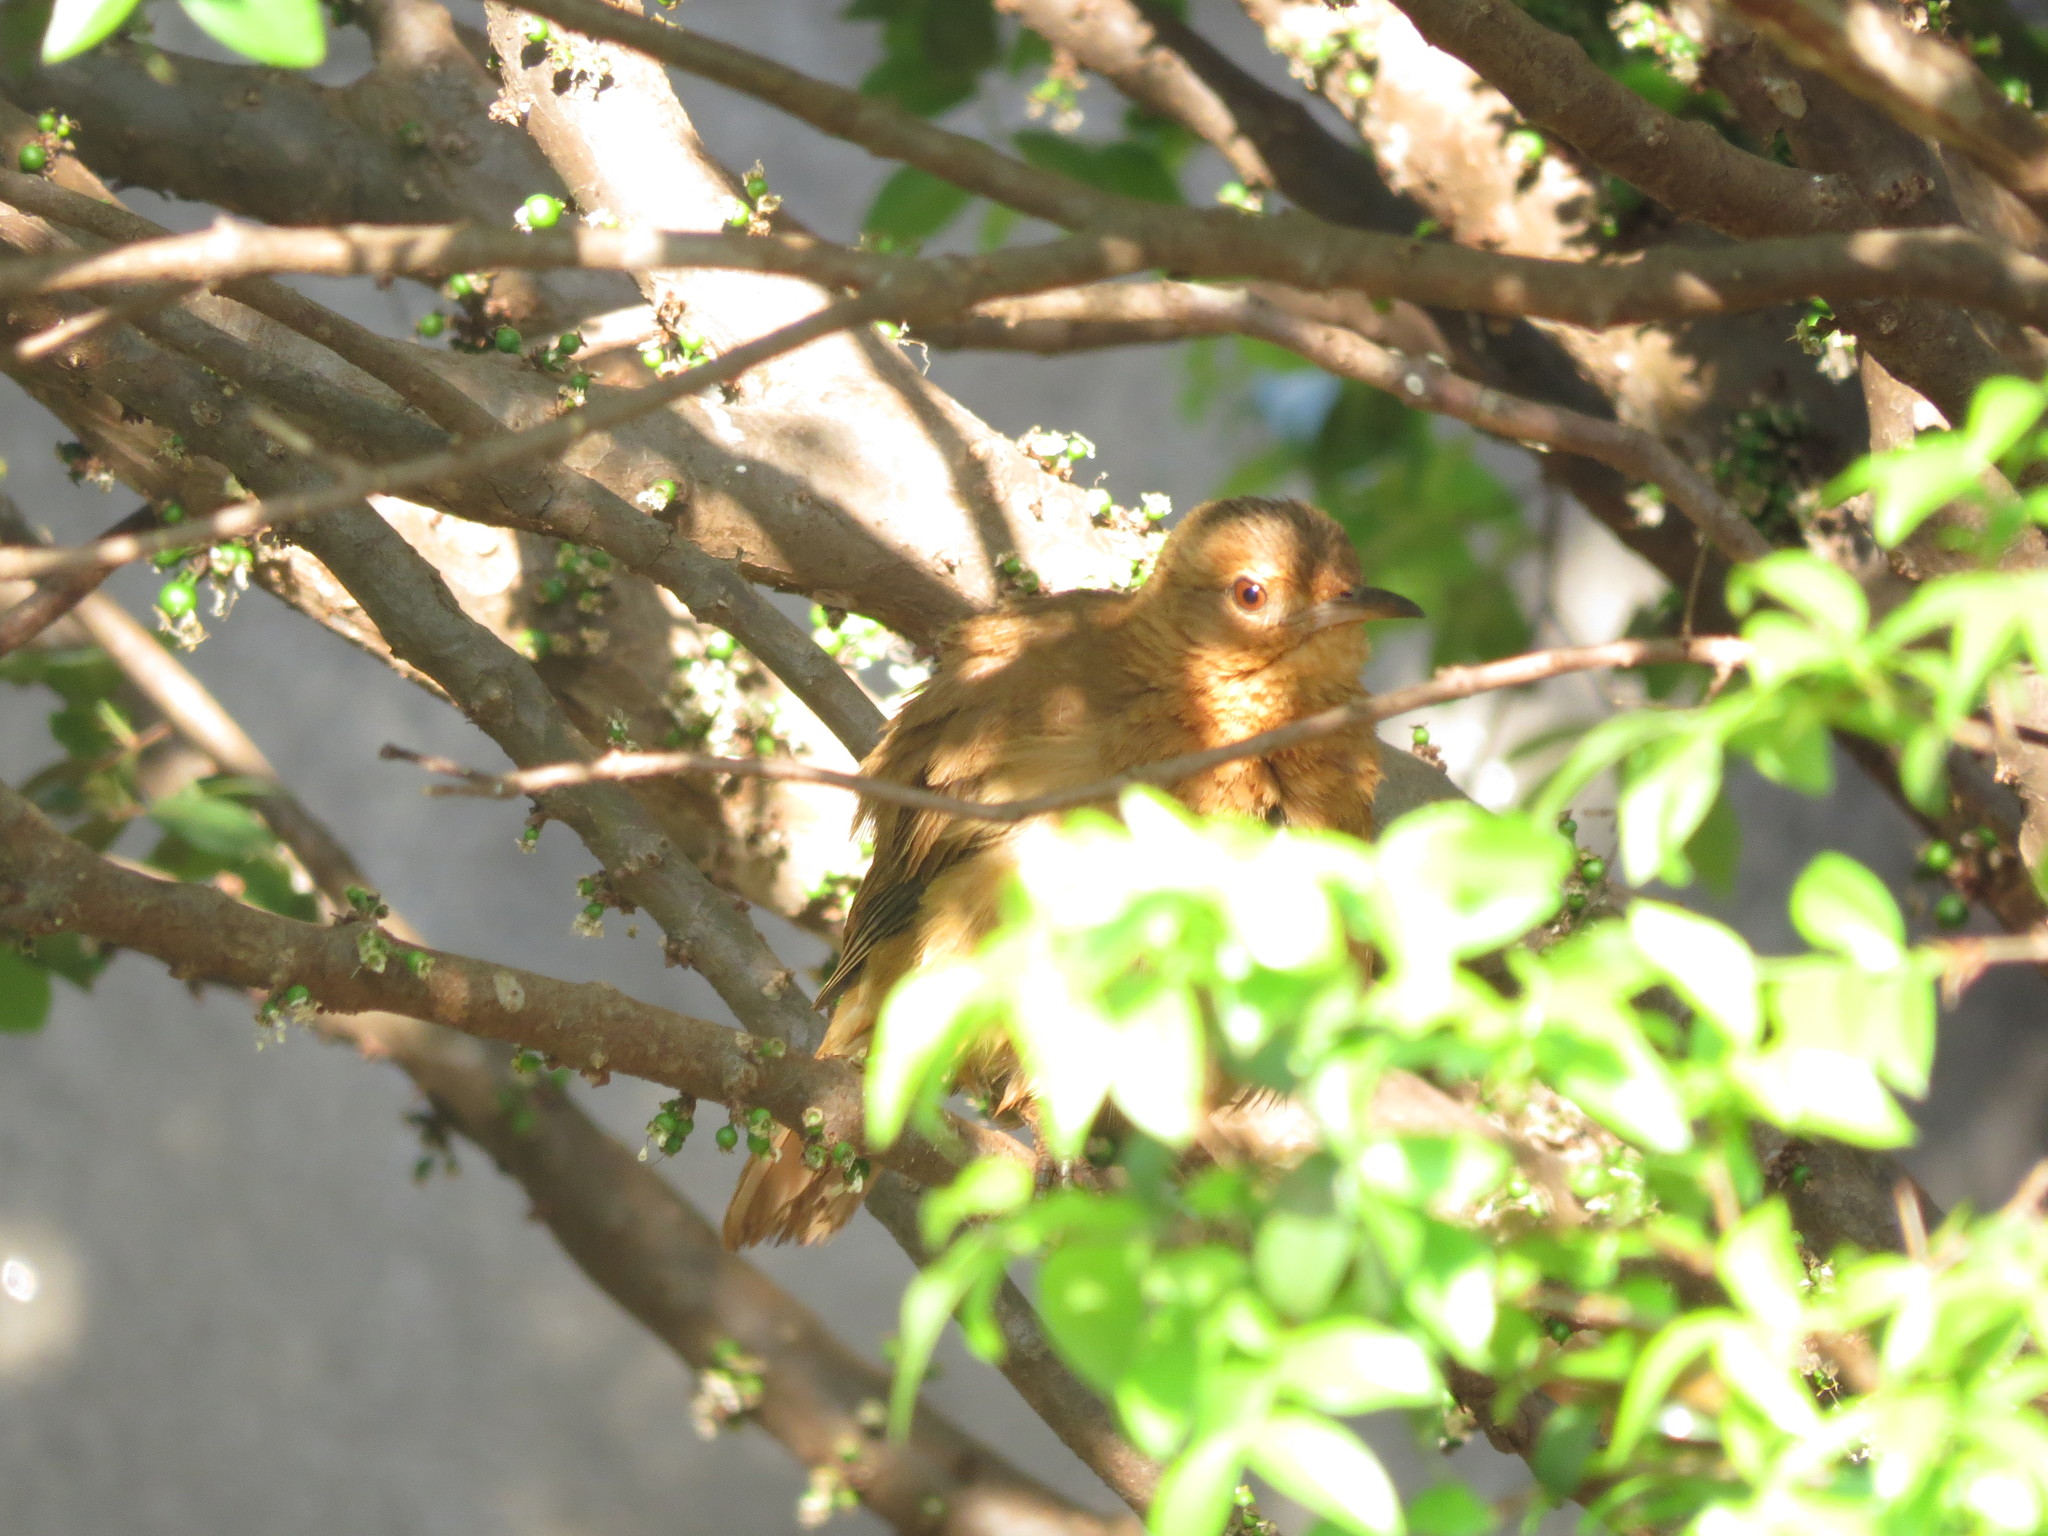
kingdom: Animalia
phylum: Chordata
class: Aves
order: Passeriformes
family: Furnariidae
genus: Furnarius
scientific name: Furnarius rufus
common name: Rufous hornero
